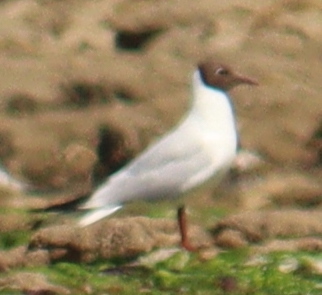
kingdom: Animalia
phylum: Chordata
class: Aves
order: Charadriiformes
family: Laridae
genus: Chroicocephalus
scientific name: Chroicocephalus ridibundus
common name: Black-headed gull
